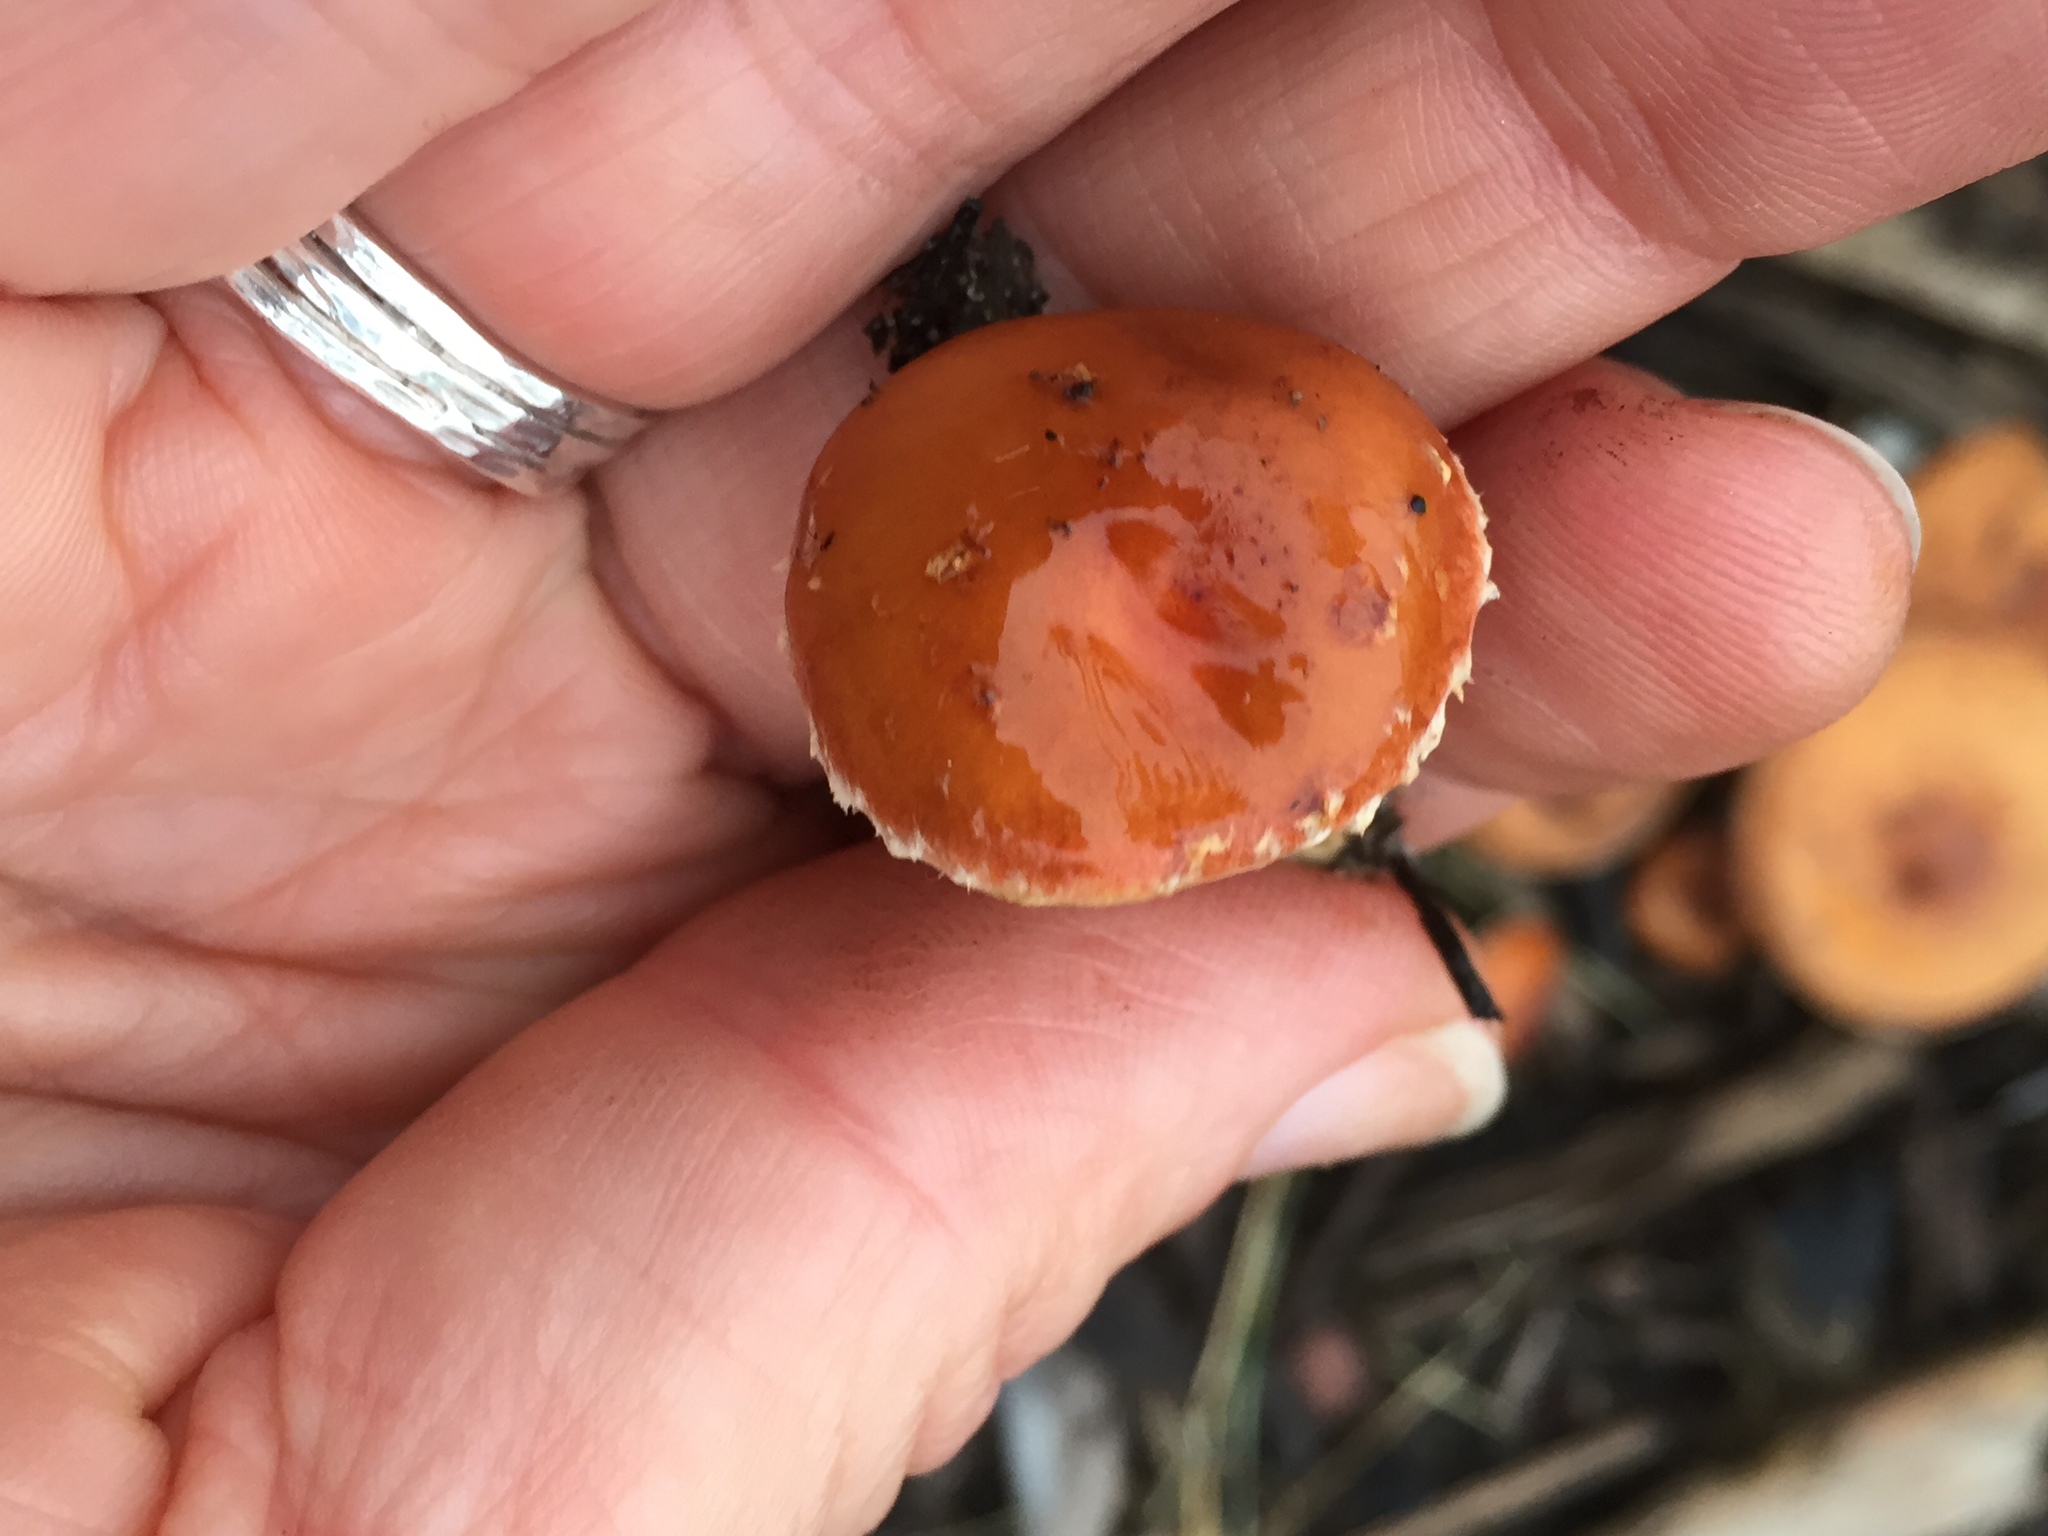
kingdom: Fungi
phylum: Basidiomycota
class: Agaricomycetes
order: Agaricales
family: Strophariaceae
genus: Leratiomyces
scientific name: Leratiomyces ceres
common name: Redlead roundhead
